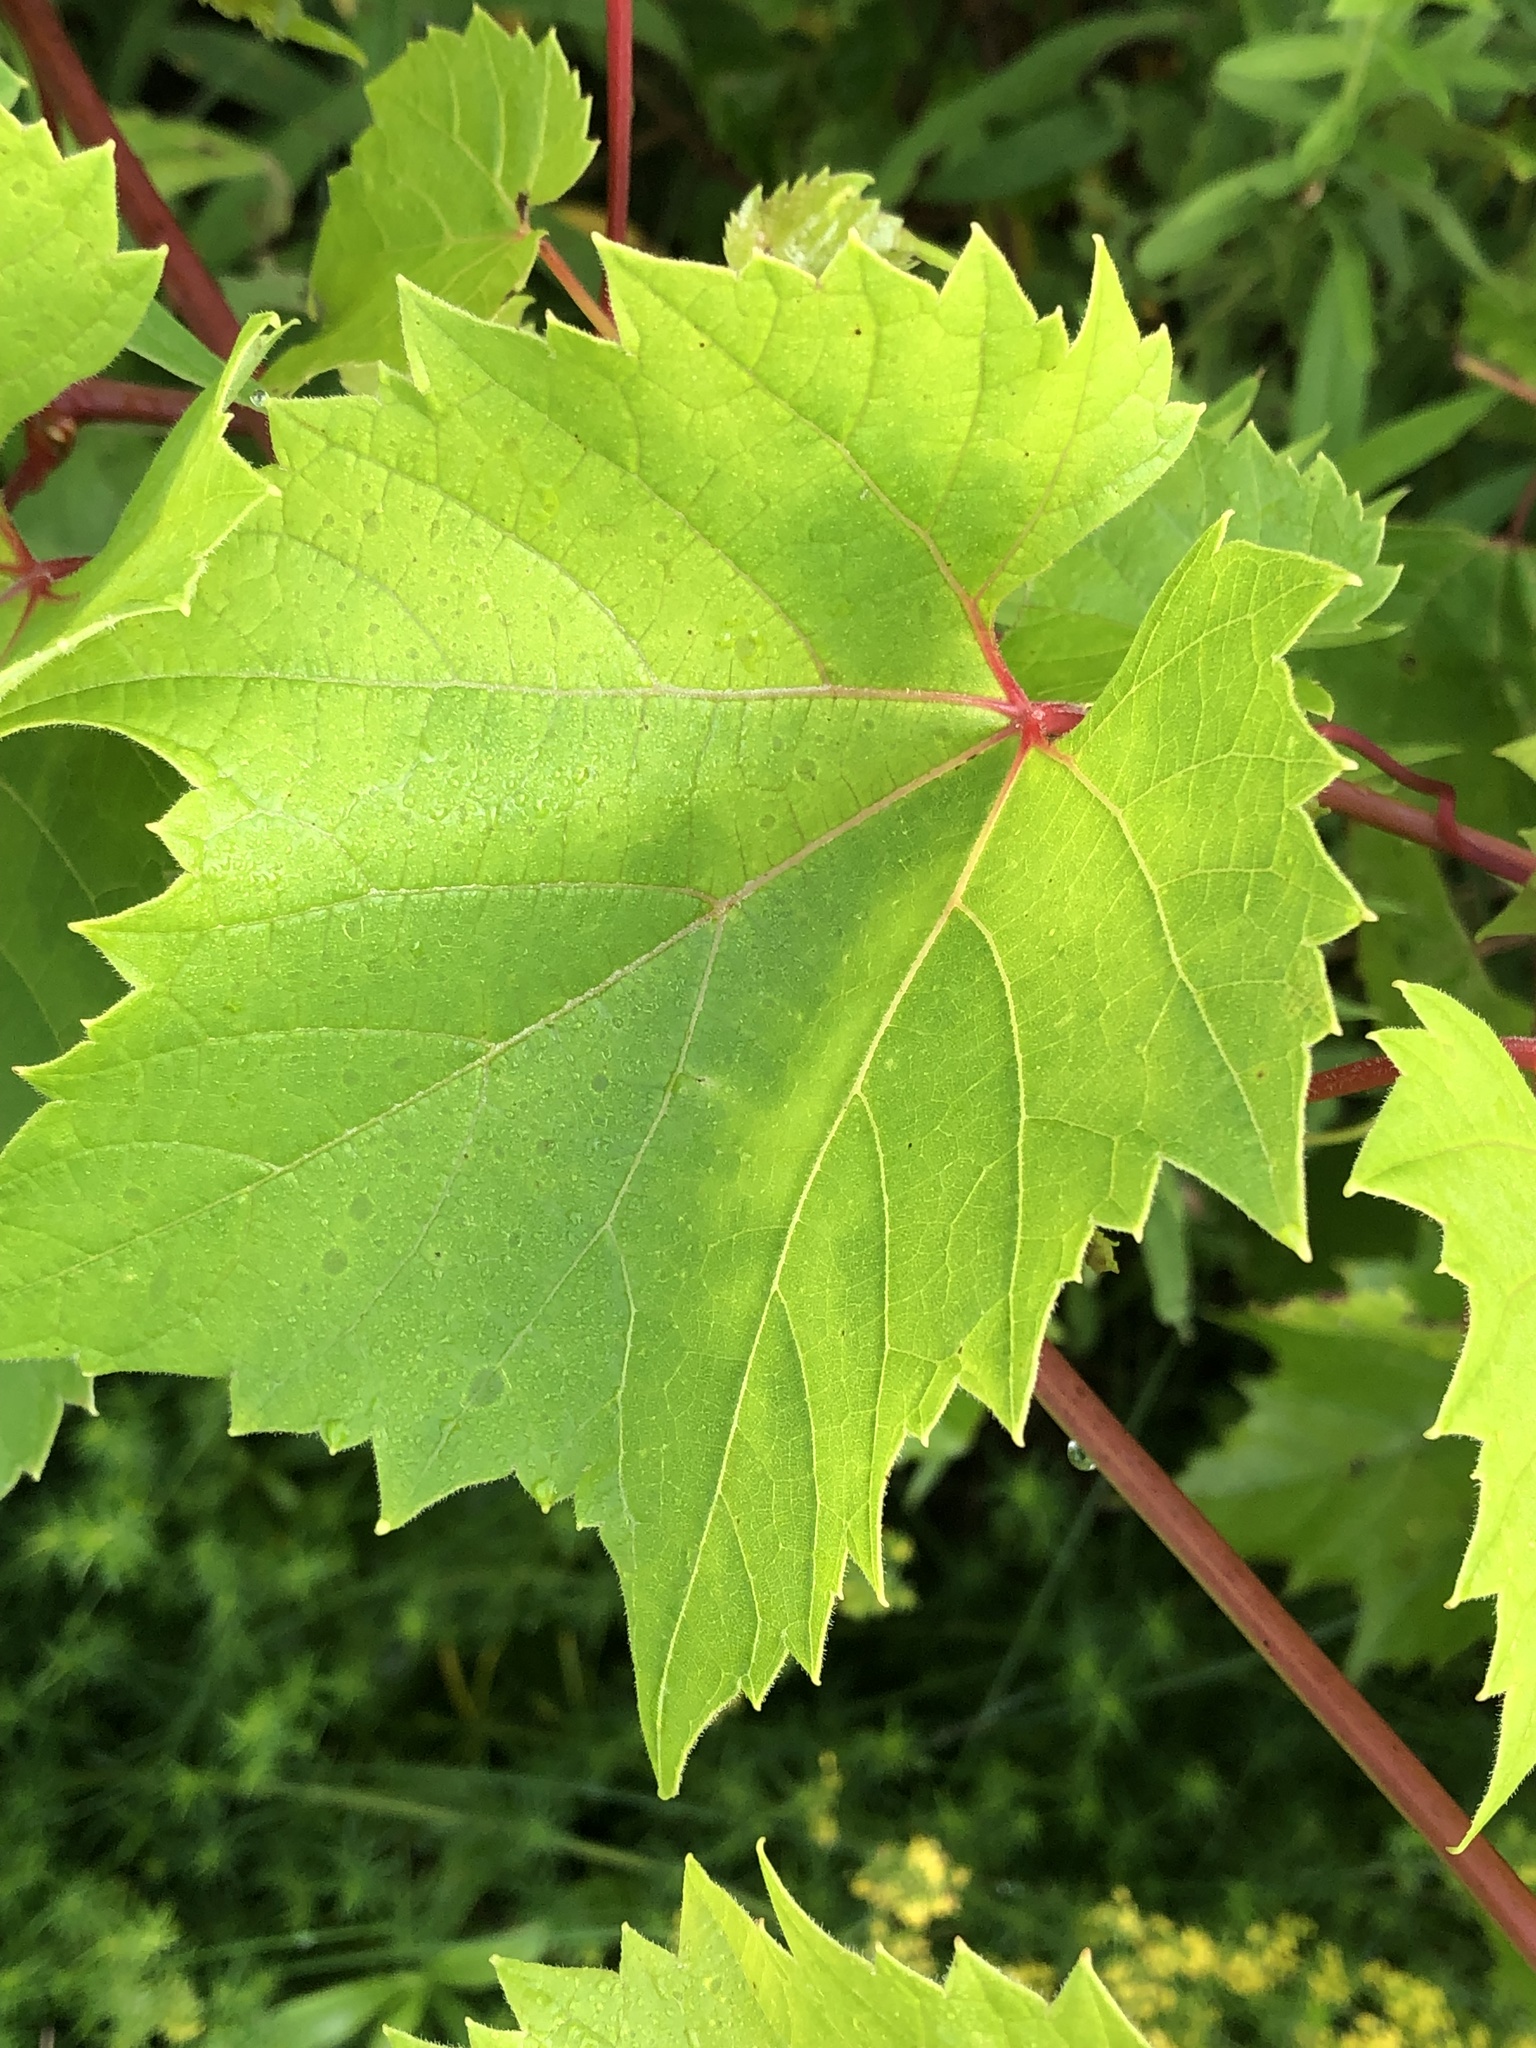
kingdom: Plantae
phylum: Tracheophyta
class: Magnoliopsida
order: Vitales
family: Vitaceae
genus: Vitis
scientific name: Vitis riparia
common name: Frost grape
